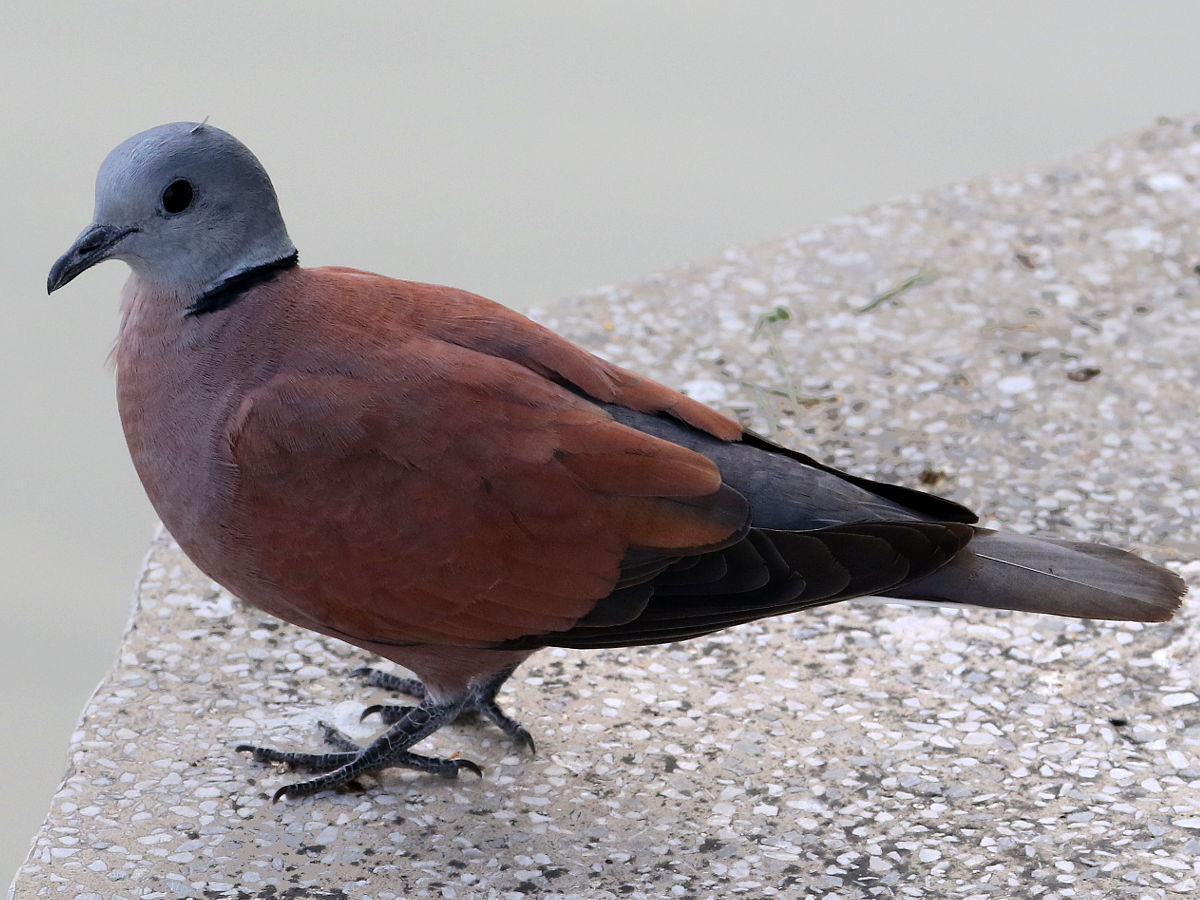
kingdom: Animalia
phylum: Chordata
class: Aves
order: Columbiformes
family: Columbidae
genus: Streptopelia
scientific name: Streptopelia tranquebarica
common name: Red turtle dove
